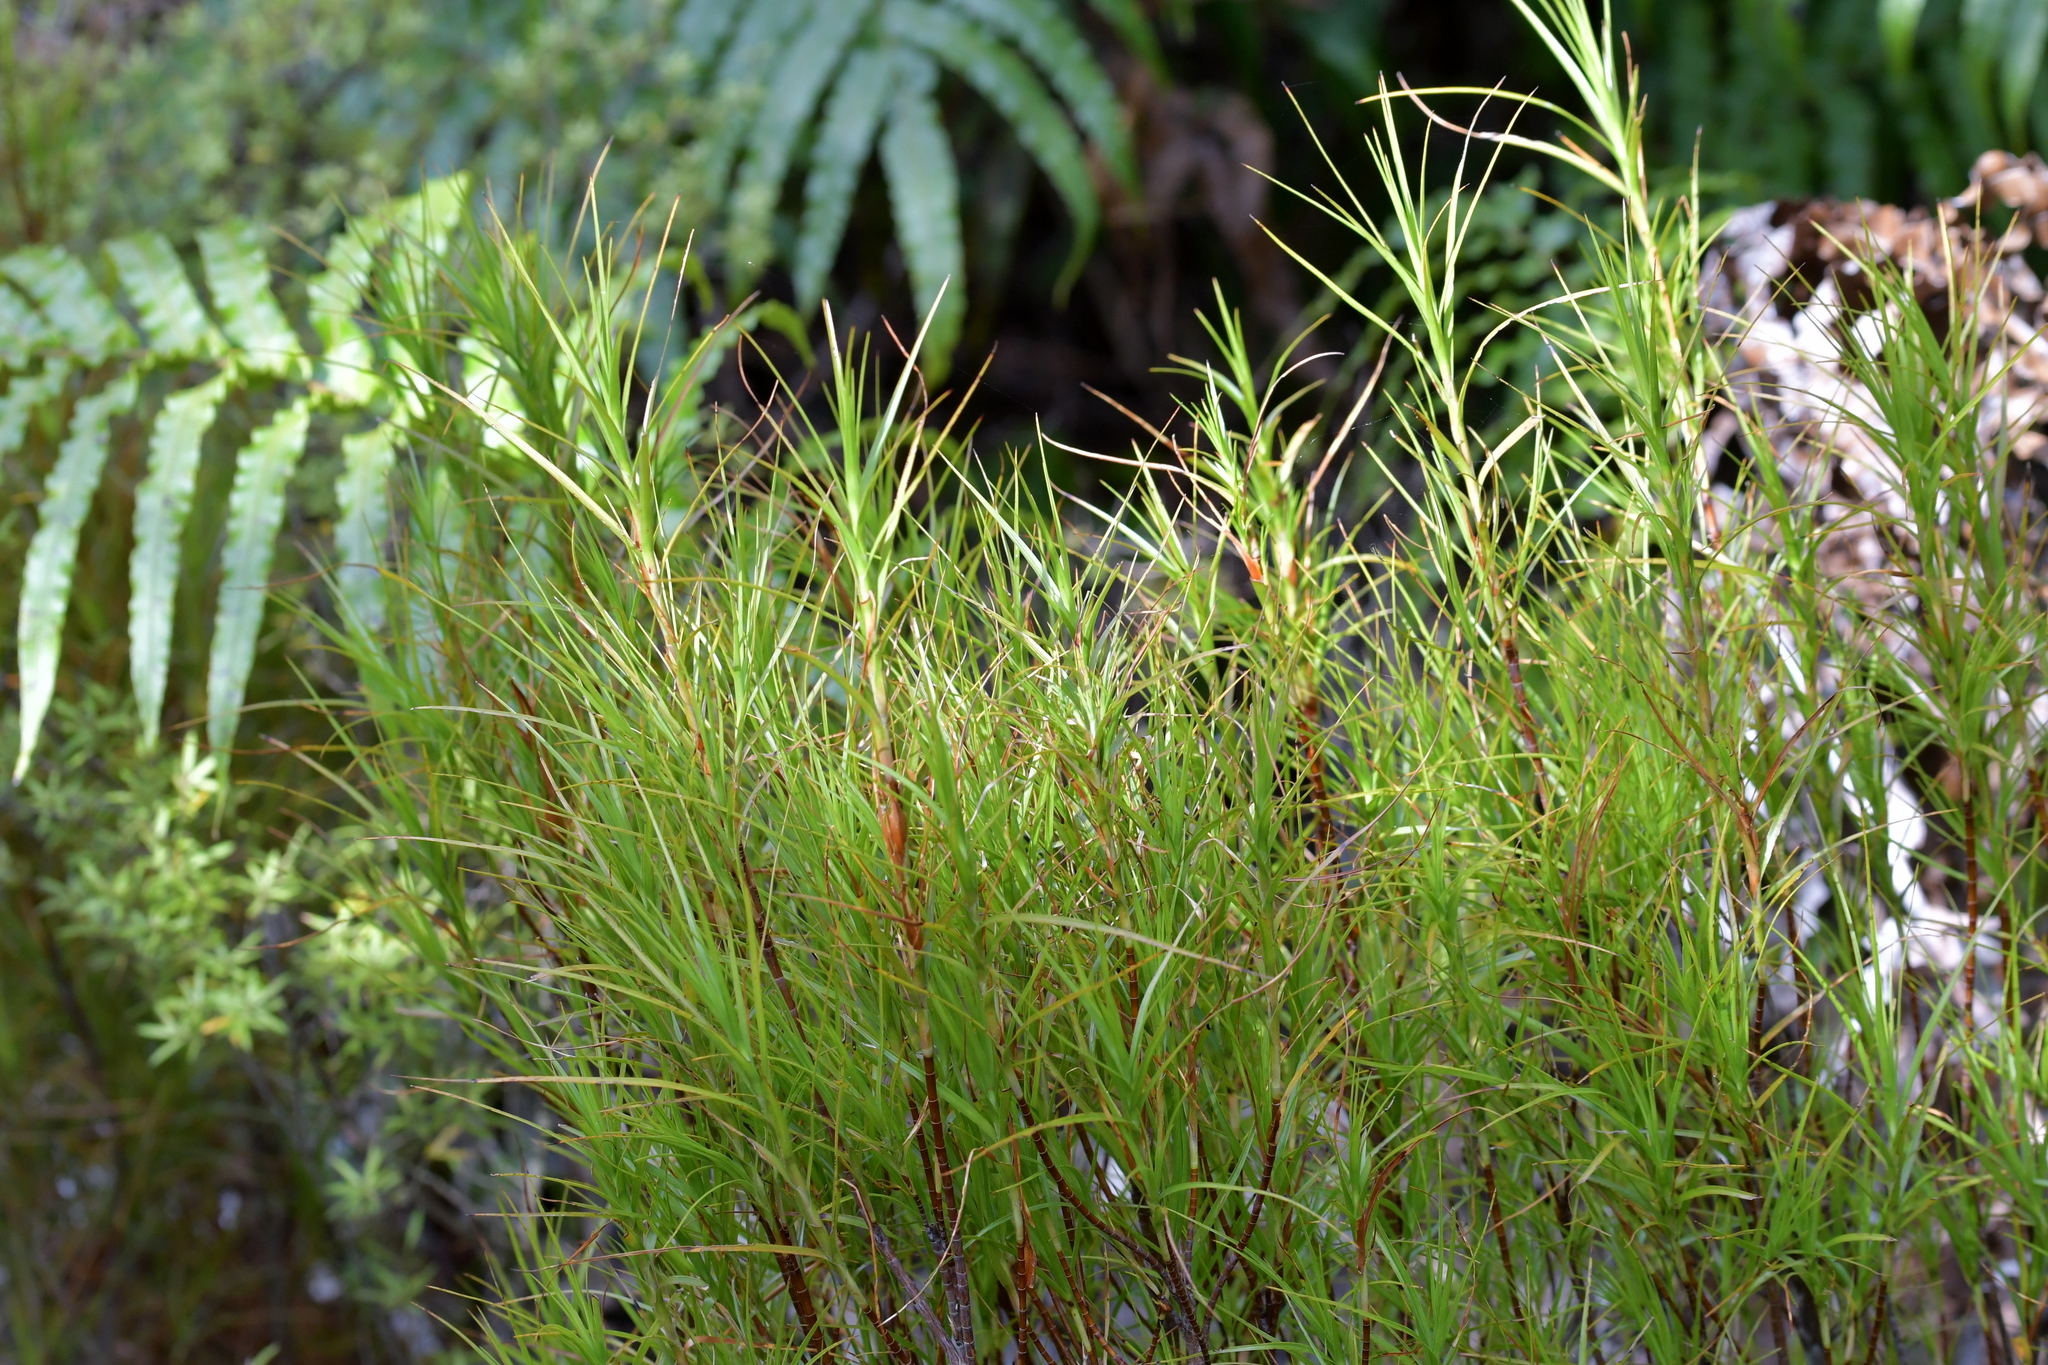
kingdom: Plantae
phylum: Tracheophyta
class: Magnoliopsida
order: Ericales
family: Ericaceae
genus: Dracophyllum
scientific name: Dracophyllum filifolium
